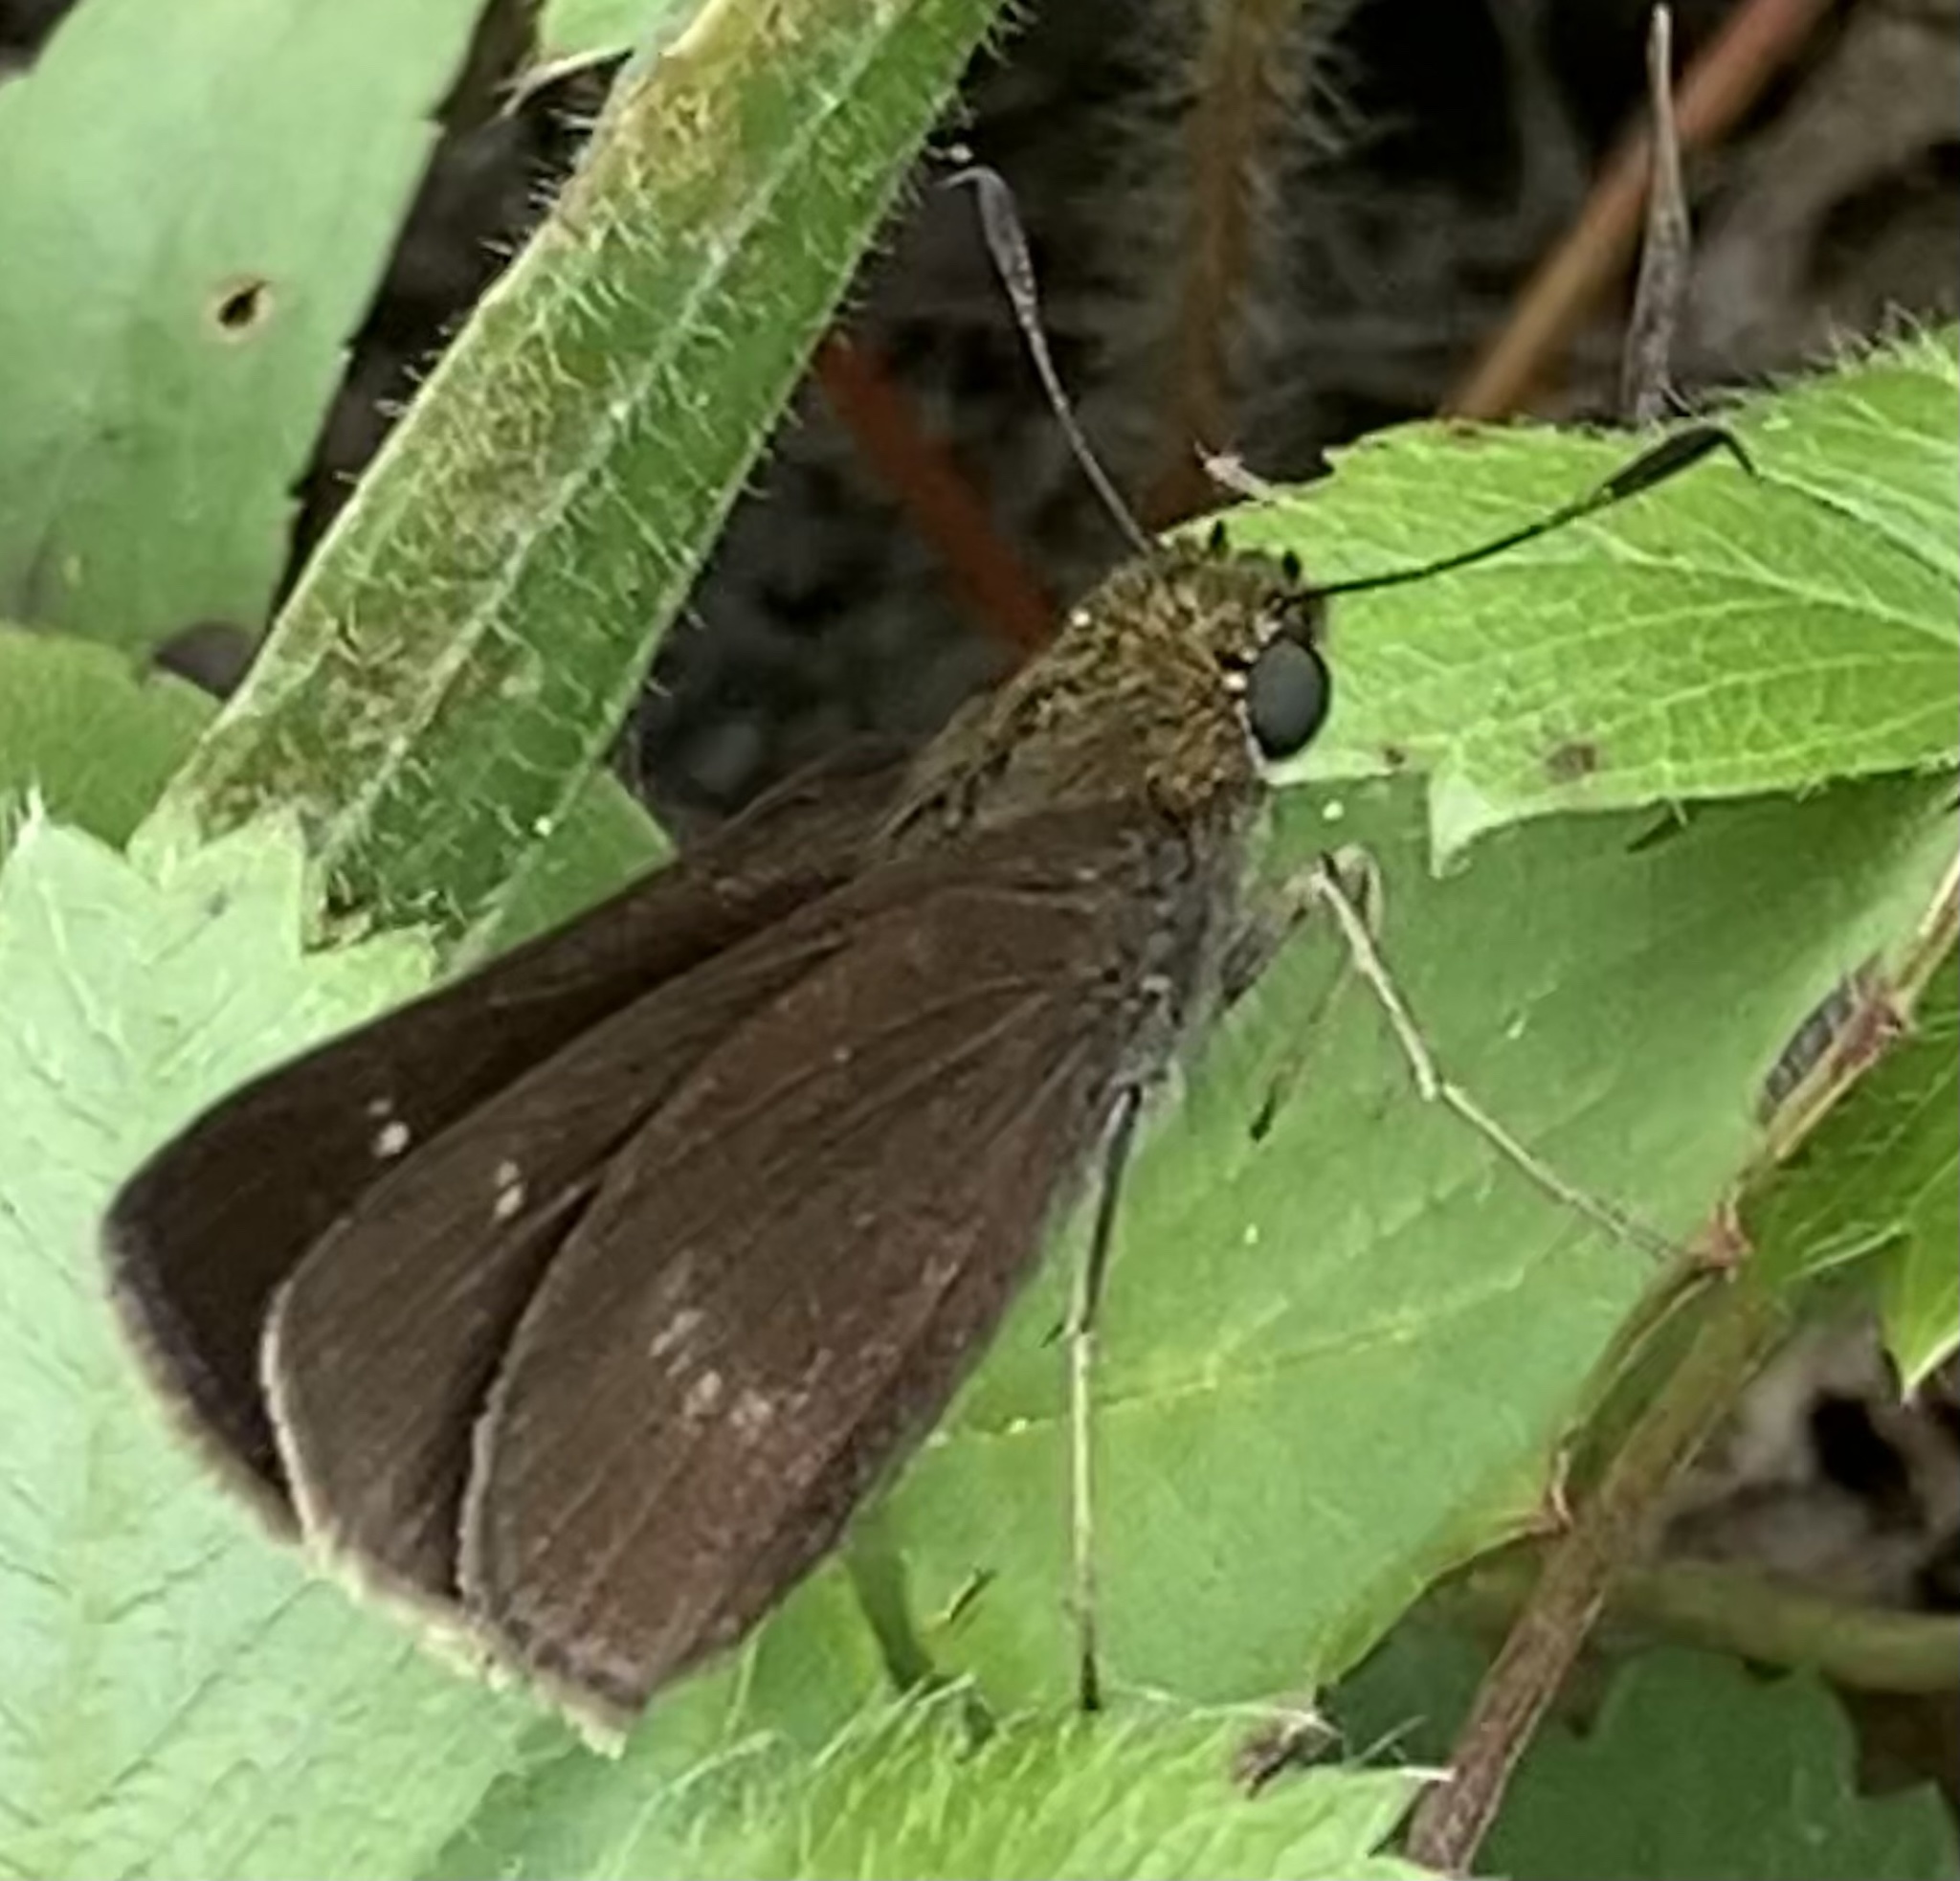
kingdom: Animalia
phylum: Arthropoda
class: Insecta
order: Lepidoptera
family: Hesperiidae
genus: Euphyes
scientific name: Euphyes vestris
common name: Dun skipper
